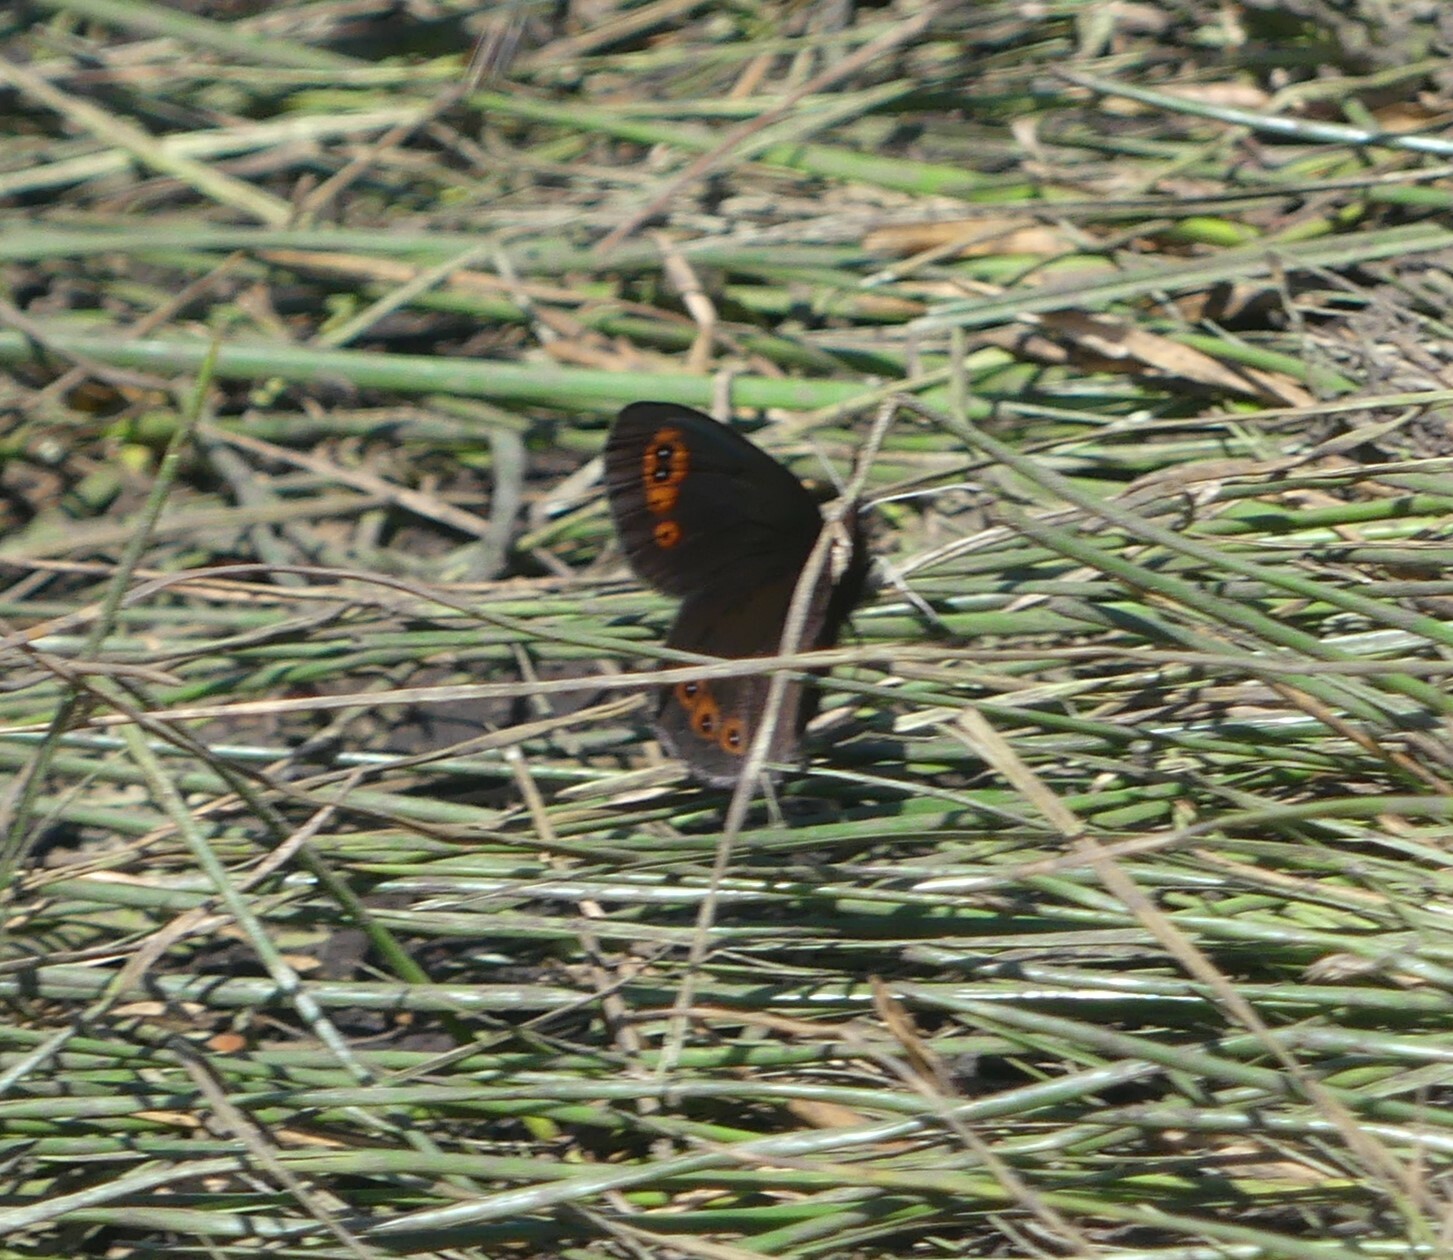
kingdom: Animalia
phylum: Arthropoda
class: Insecta
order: Lepidoptera
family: Nymphalidae
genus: Erebia
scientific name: Erebia epipsodea
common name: Common alpine
